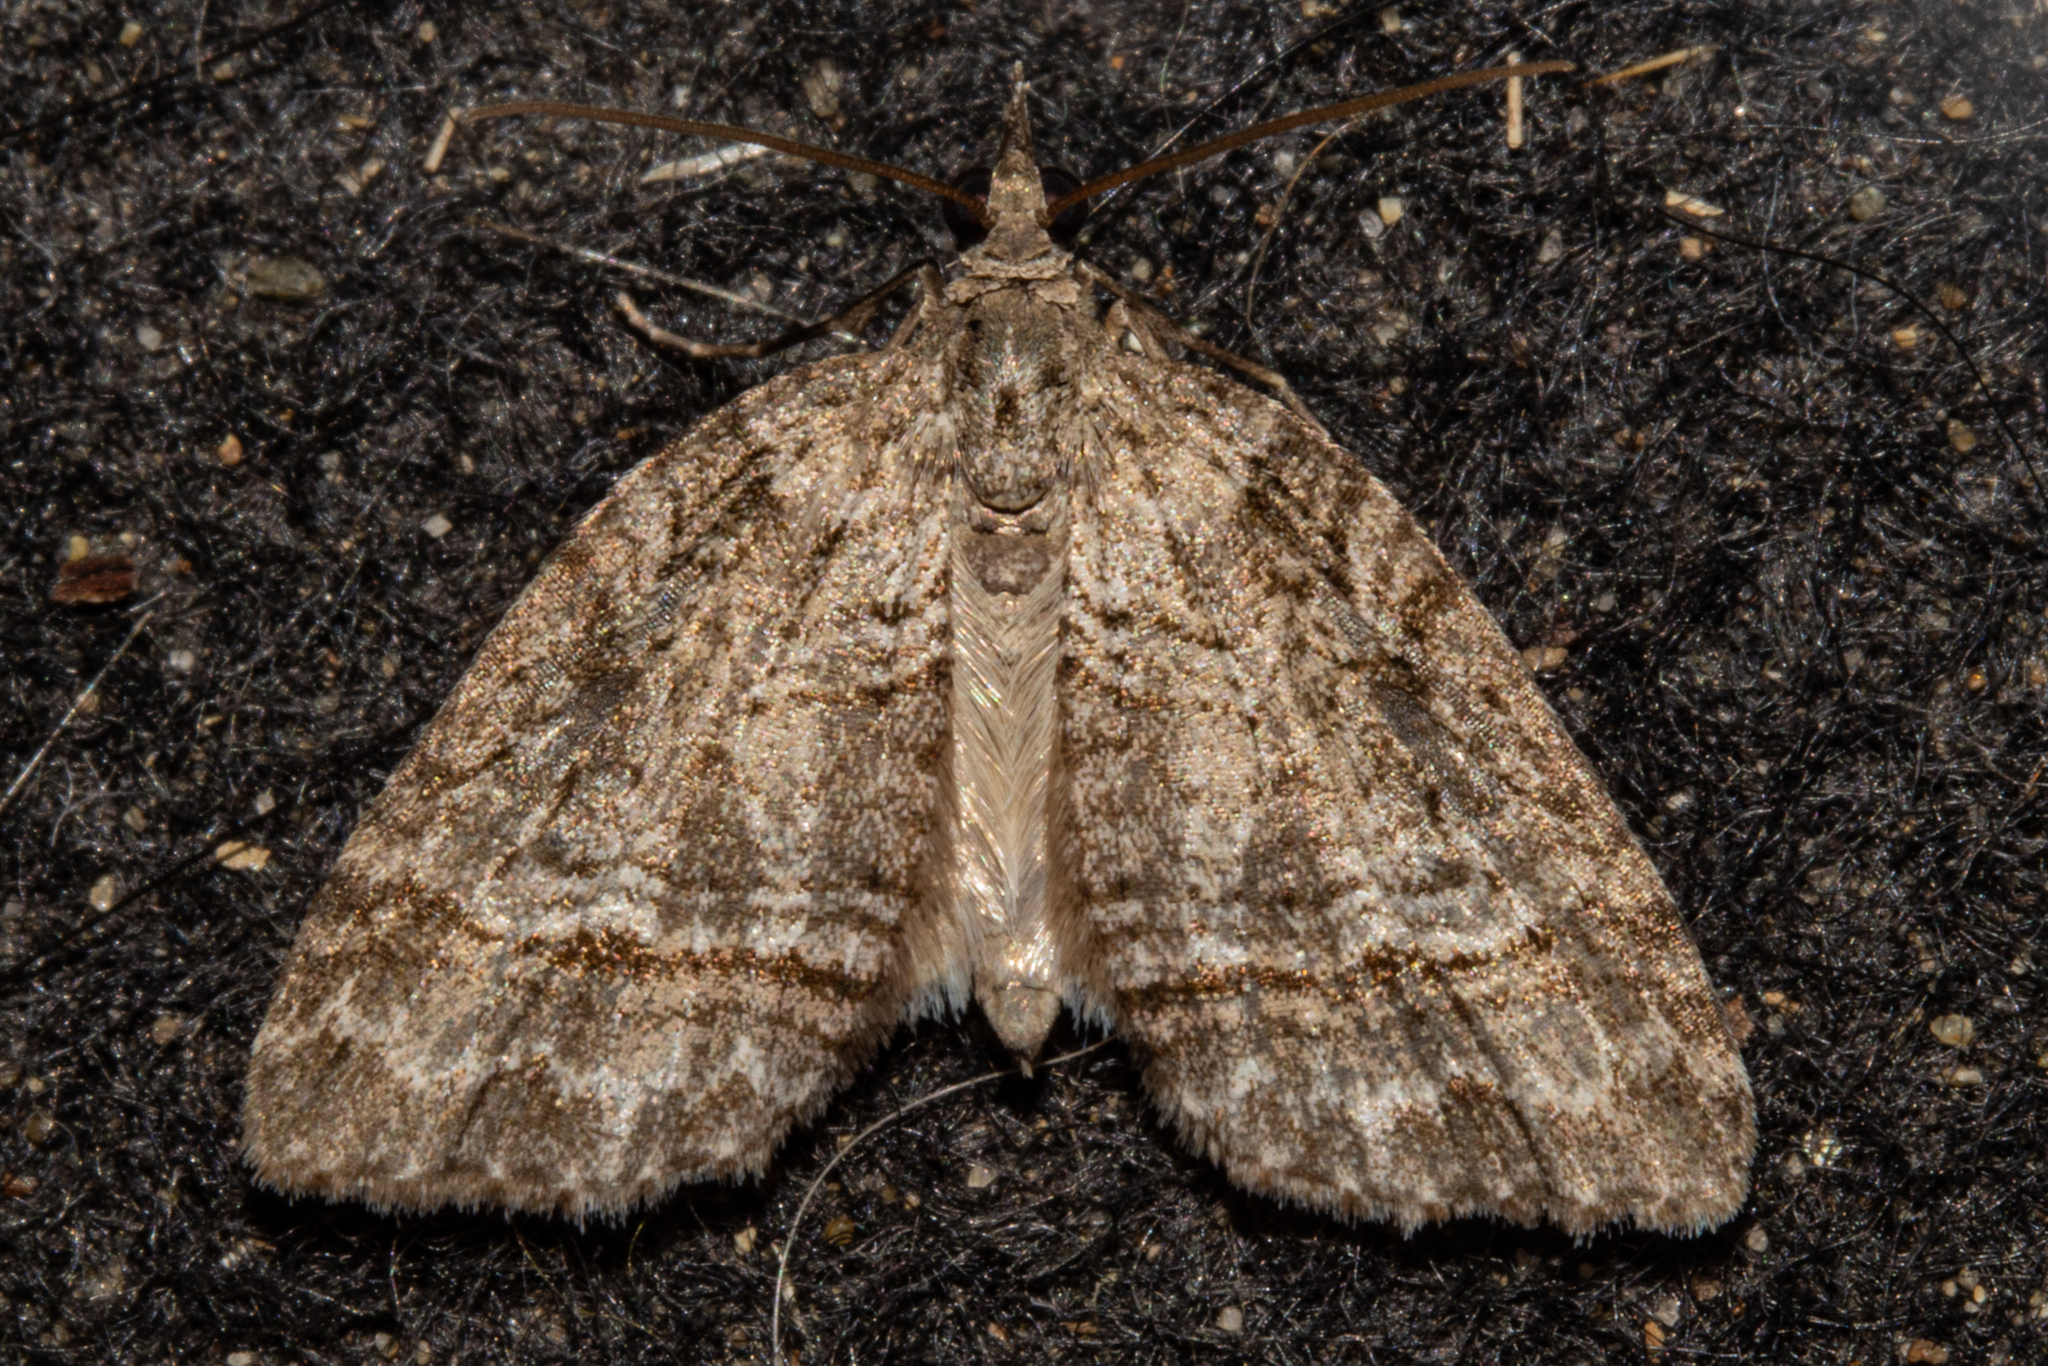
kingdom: Animalia
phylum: Arthropoda
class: Insecta
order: Lepidoptera
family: Geometridae
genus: Microdes
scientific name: Microdes quadristrigata
